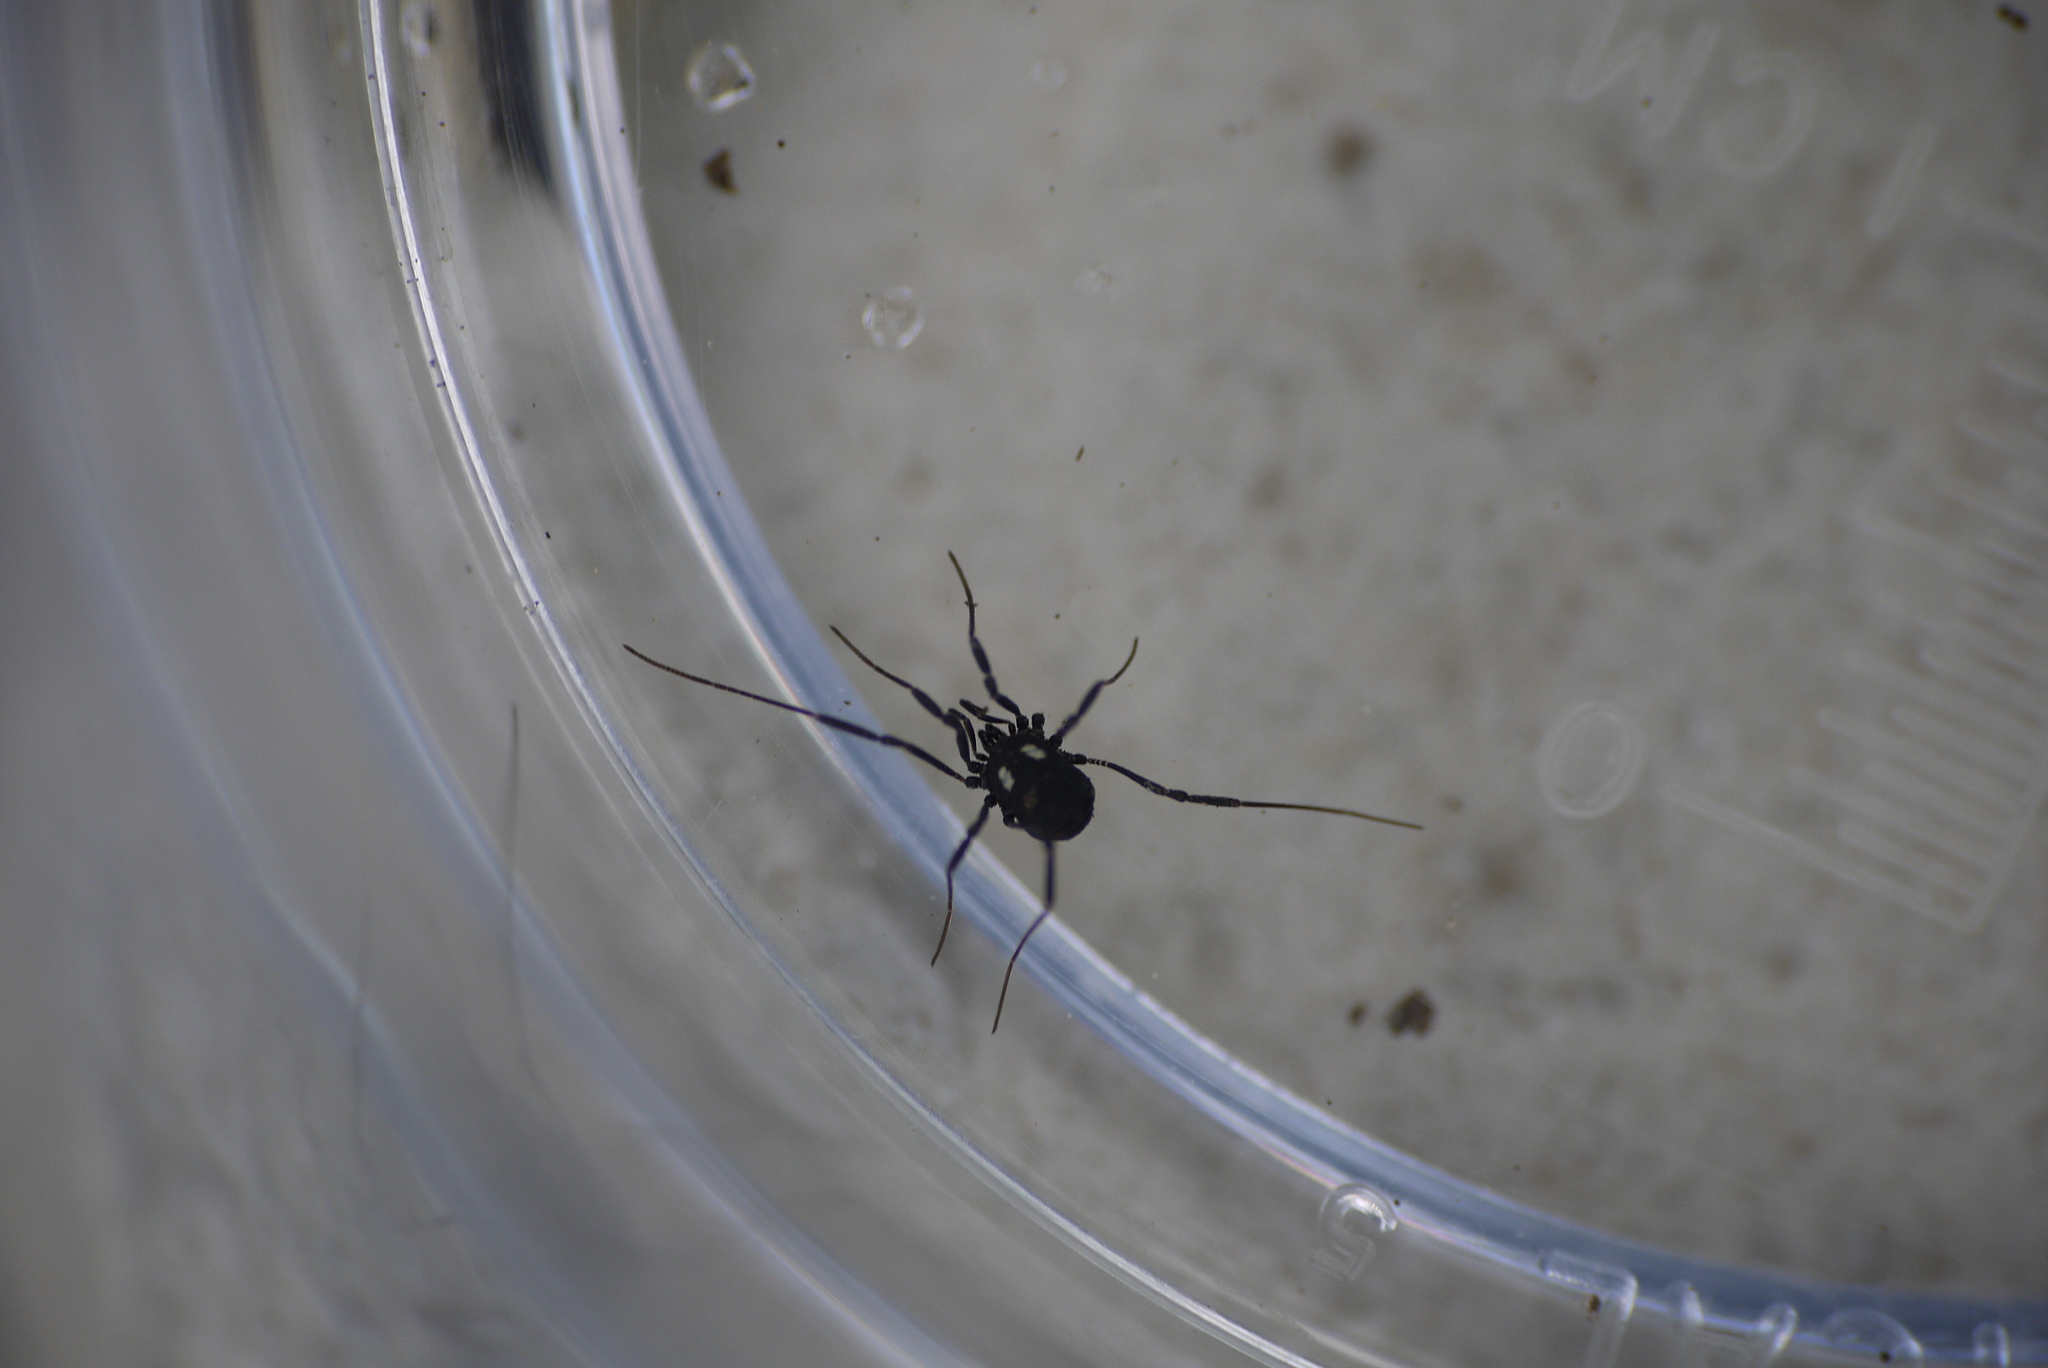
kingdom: Animalia
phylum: Arthropoda
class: Arachnida
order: Opiliones
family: Nemastomatidae
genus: Nemastoma
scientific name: Nemastoma lugubre
